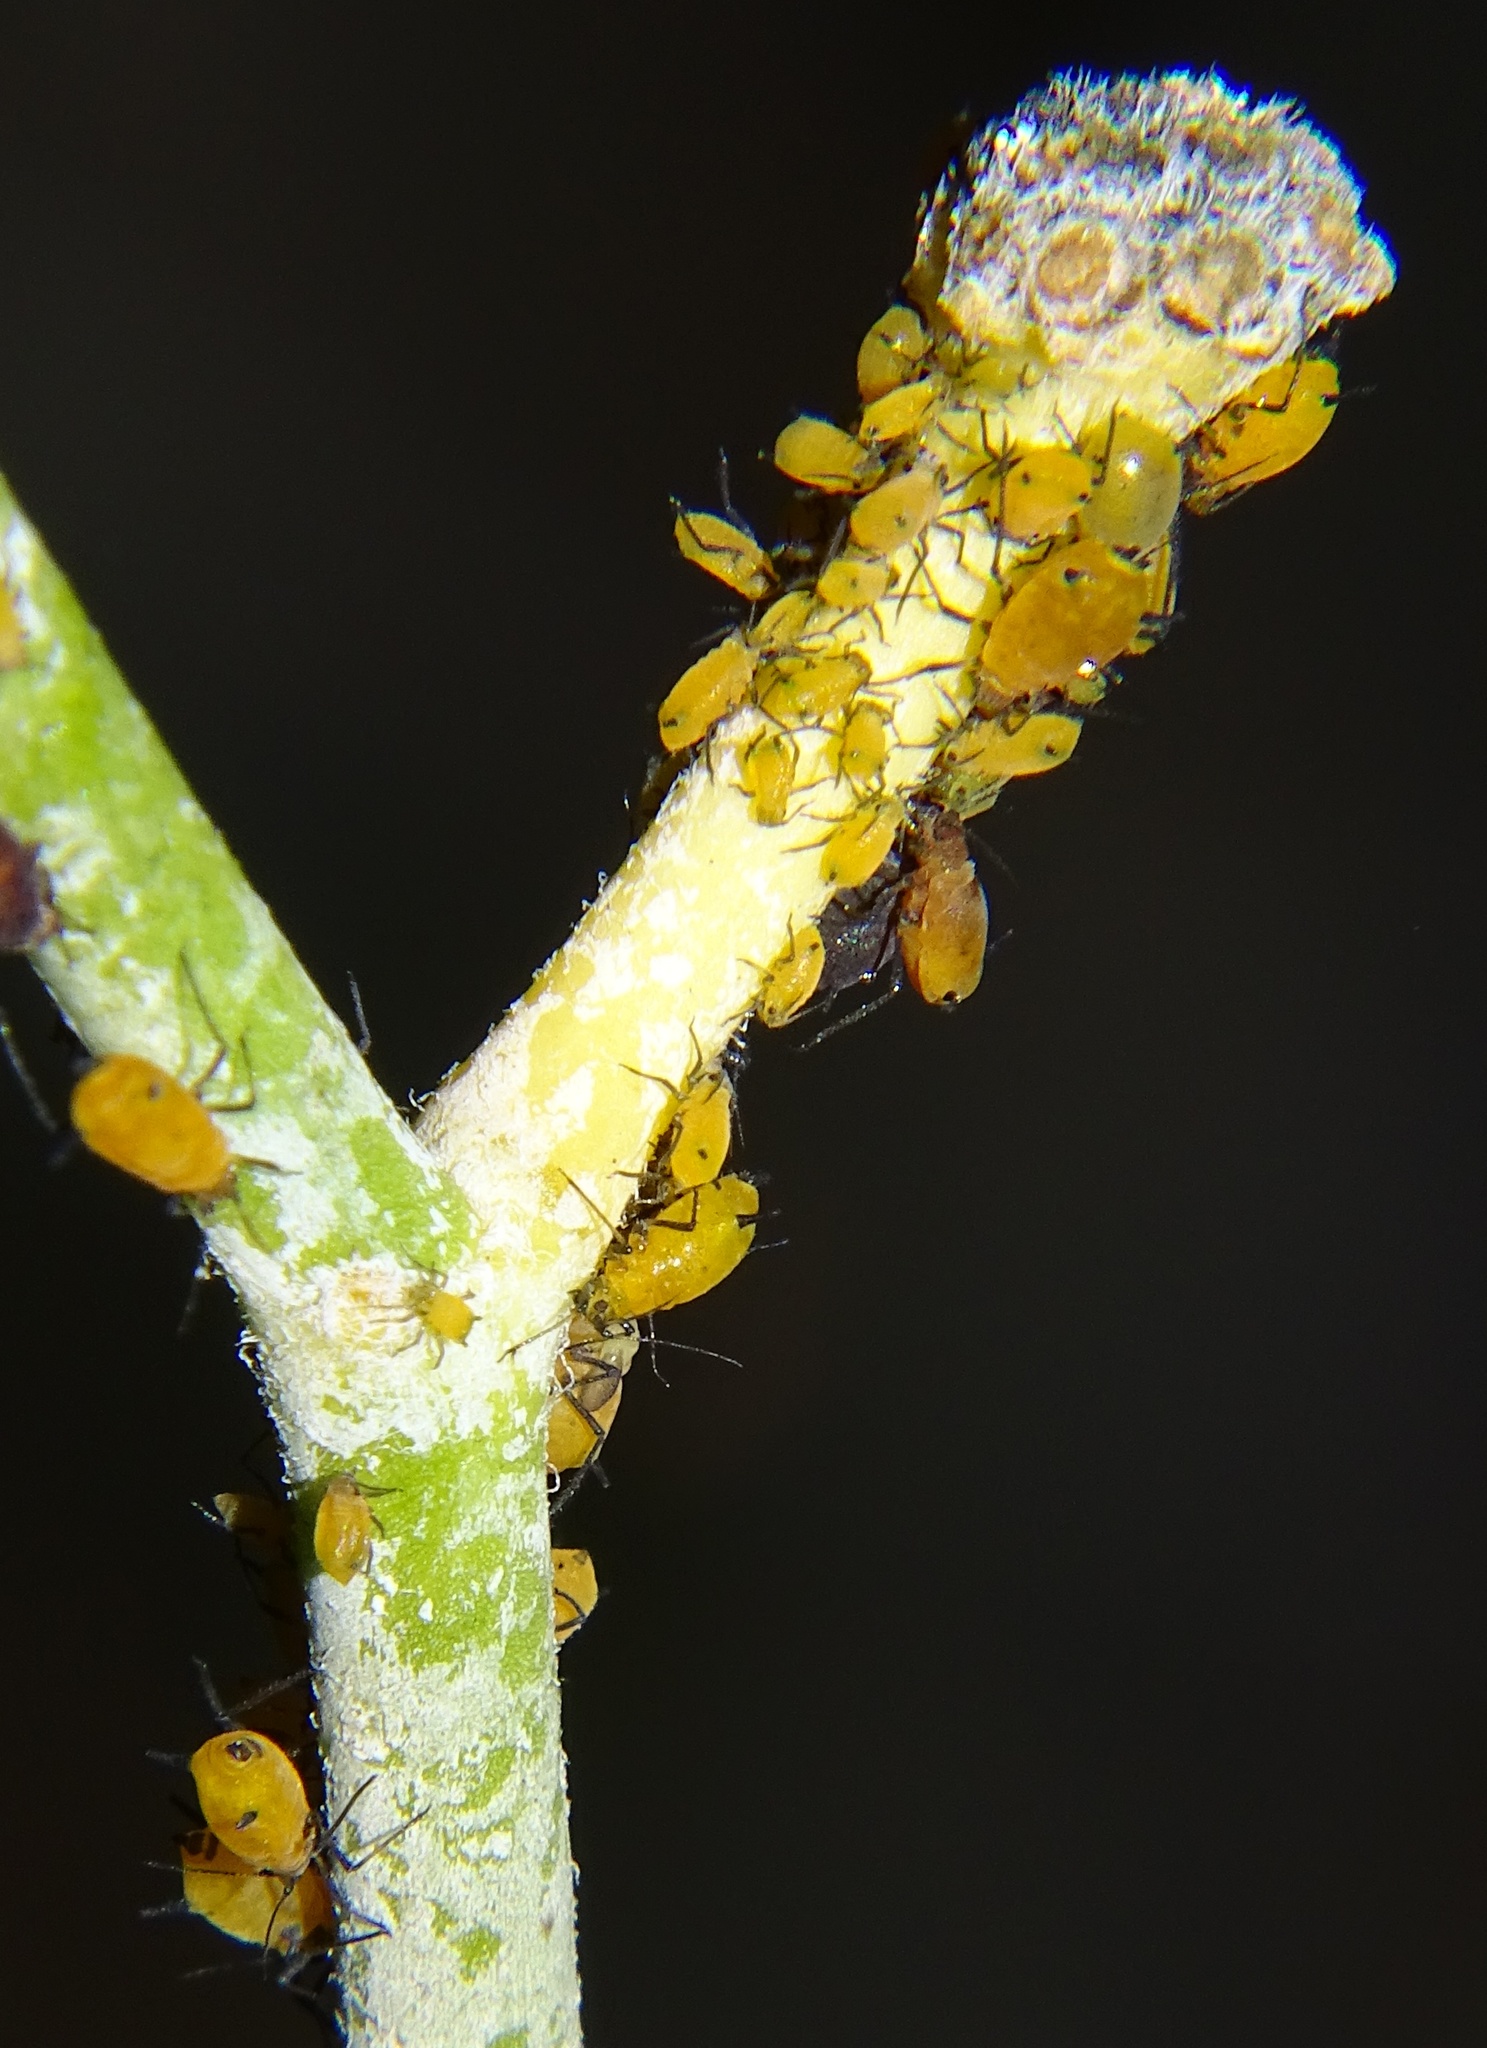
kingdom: Animalia
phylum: Arthropoda
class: Insecta
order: Hemiptera
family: Aphididae
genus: Aphis
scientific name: Aphis nerii
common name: Oleander aphid
